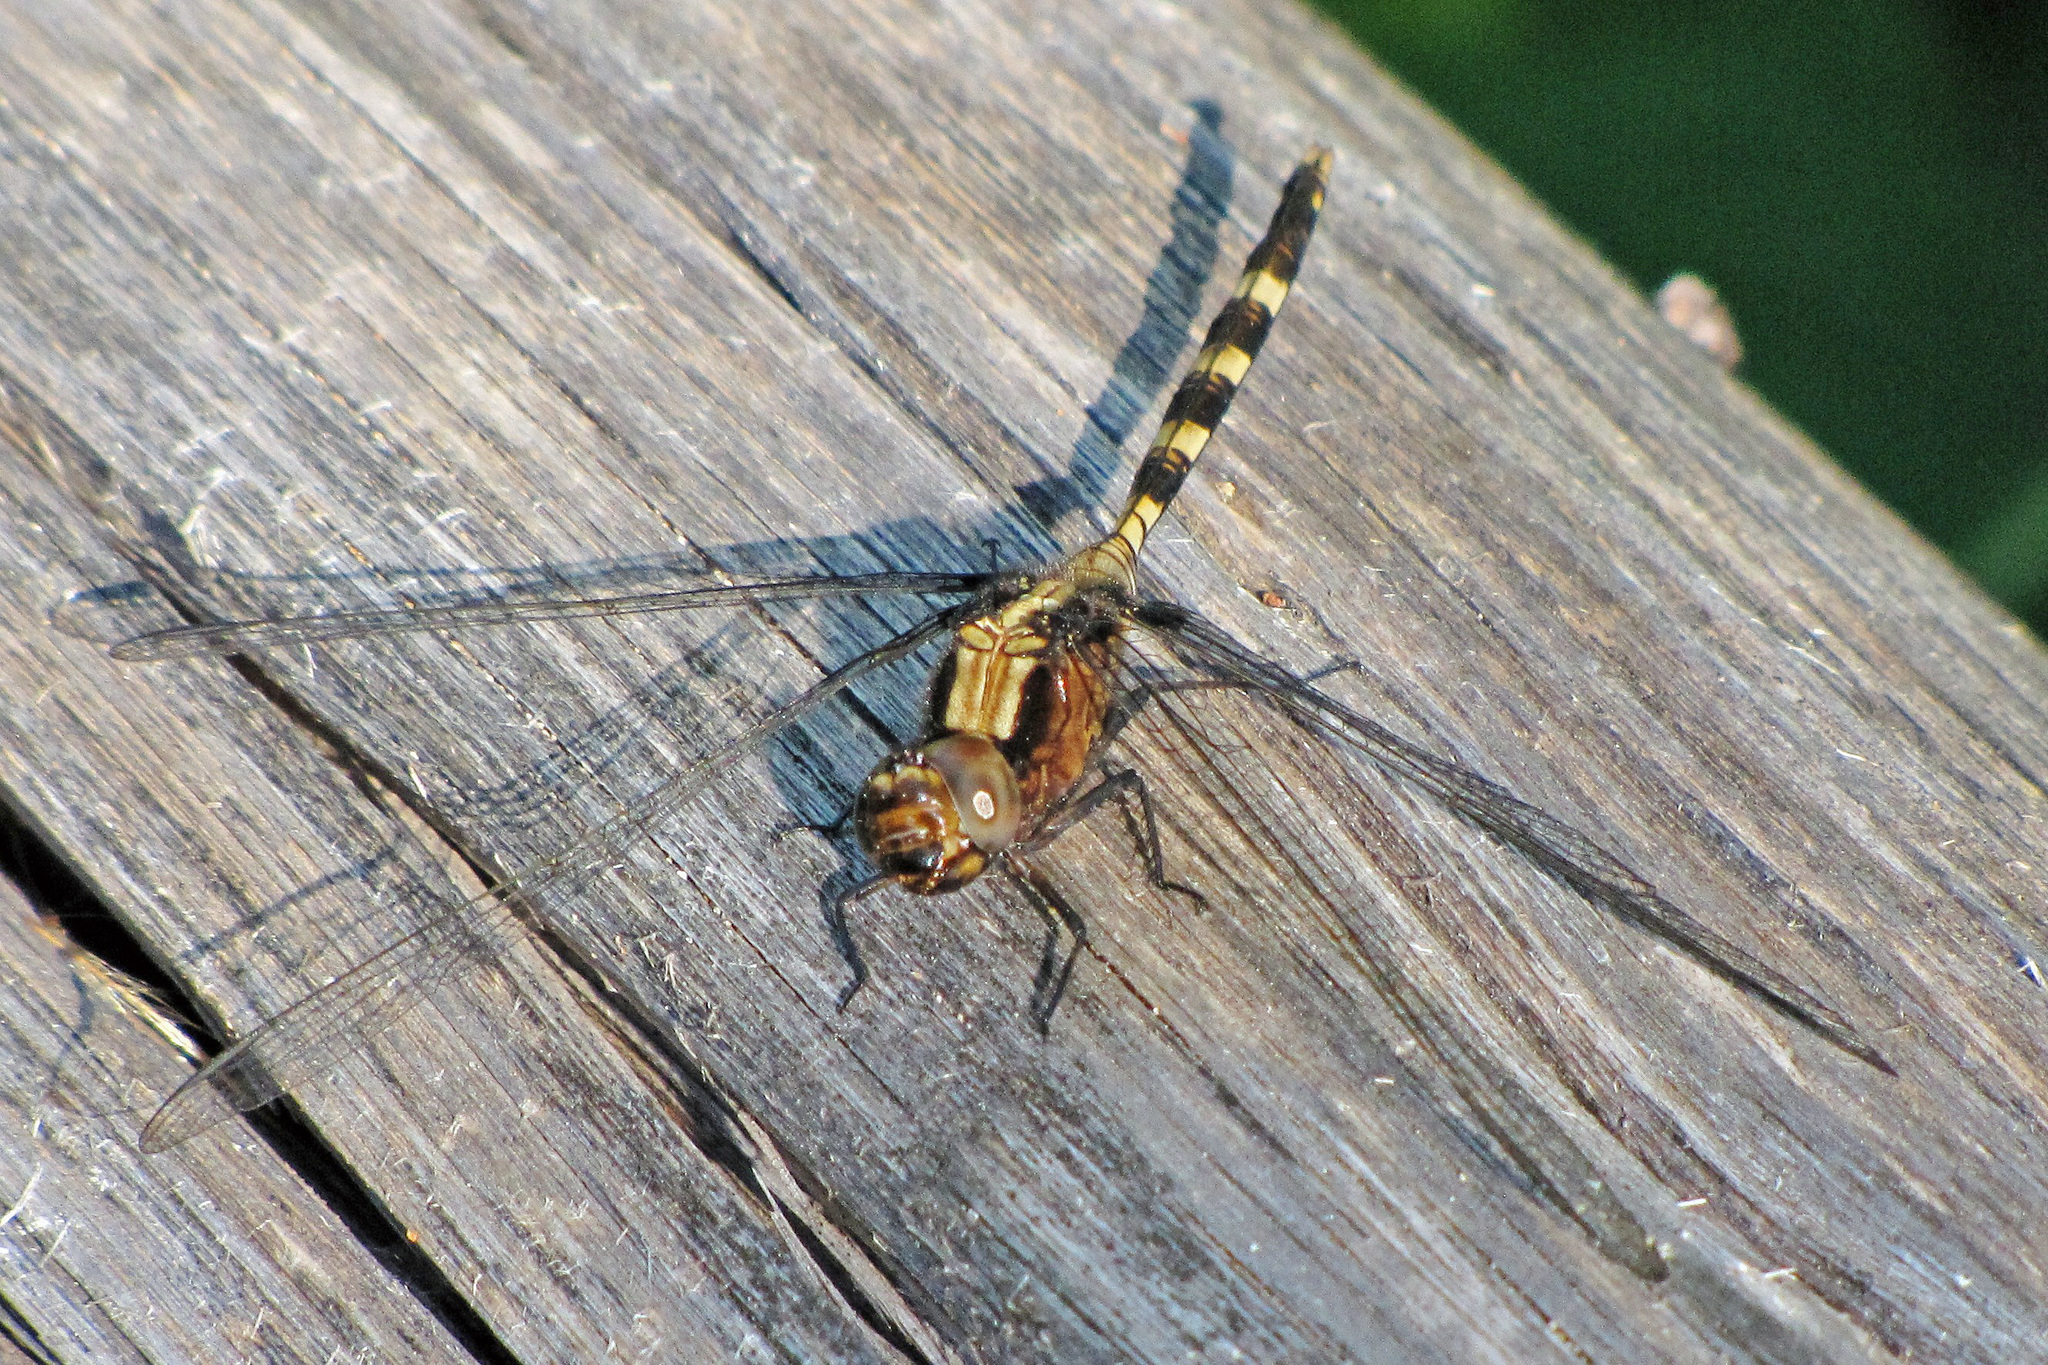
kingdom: Animalia
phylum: Arthropoda
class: Insecta
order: Odonata
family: Libellulidae
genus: Erythemis
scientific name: Erythemis plebeja
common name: Pin-tailed pondhawk
